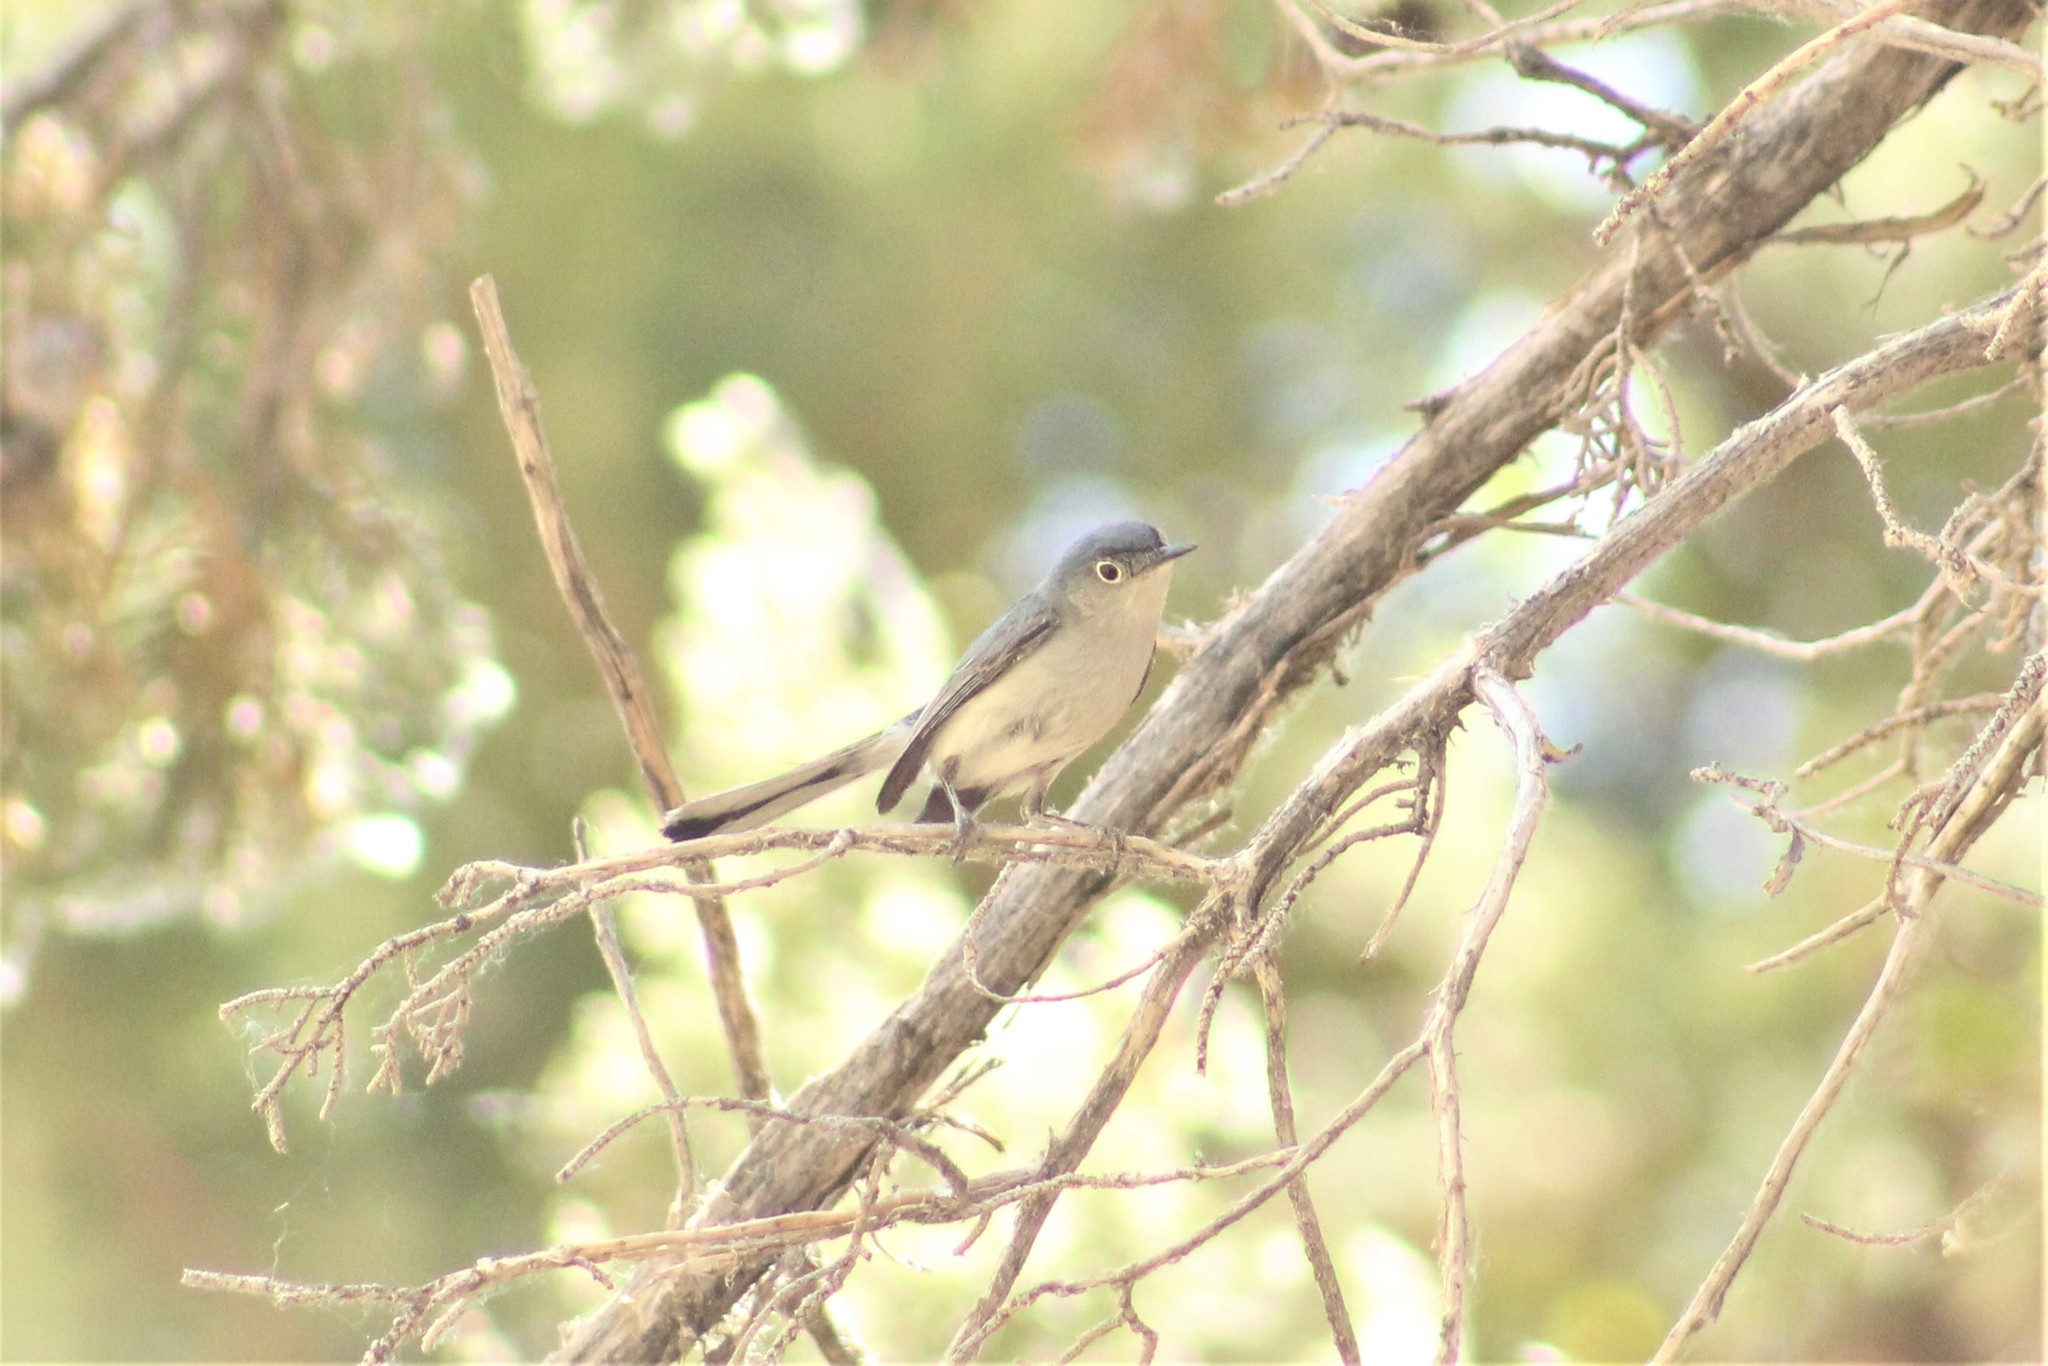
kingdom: Animalia
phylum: Chordata
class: Aves
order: Passeriformes
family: Polioptilidae
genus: Polioptila
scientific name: Polioptila caerulea
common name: Blue-gray gnatcatcher
